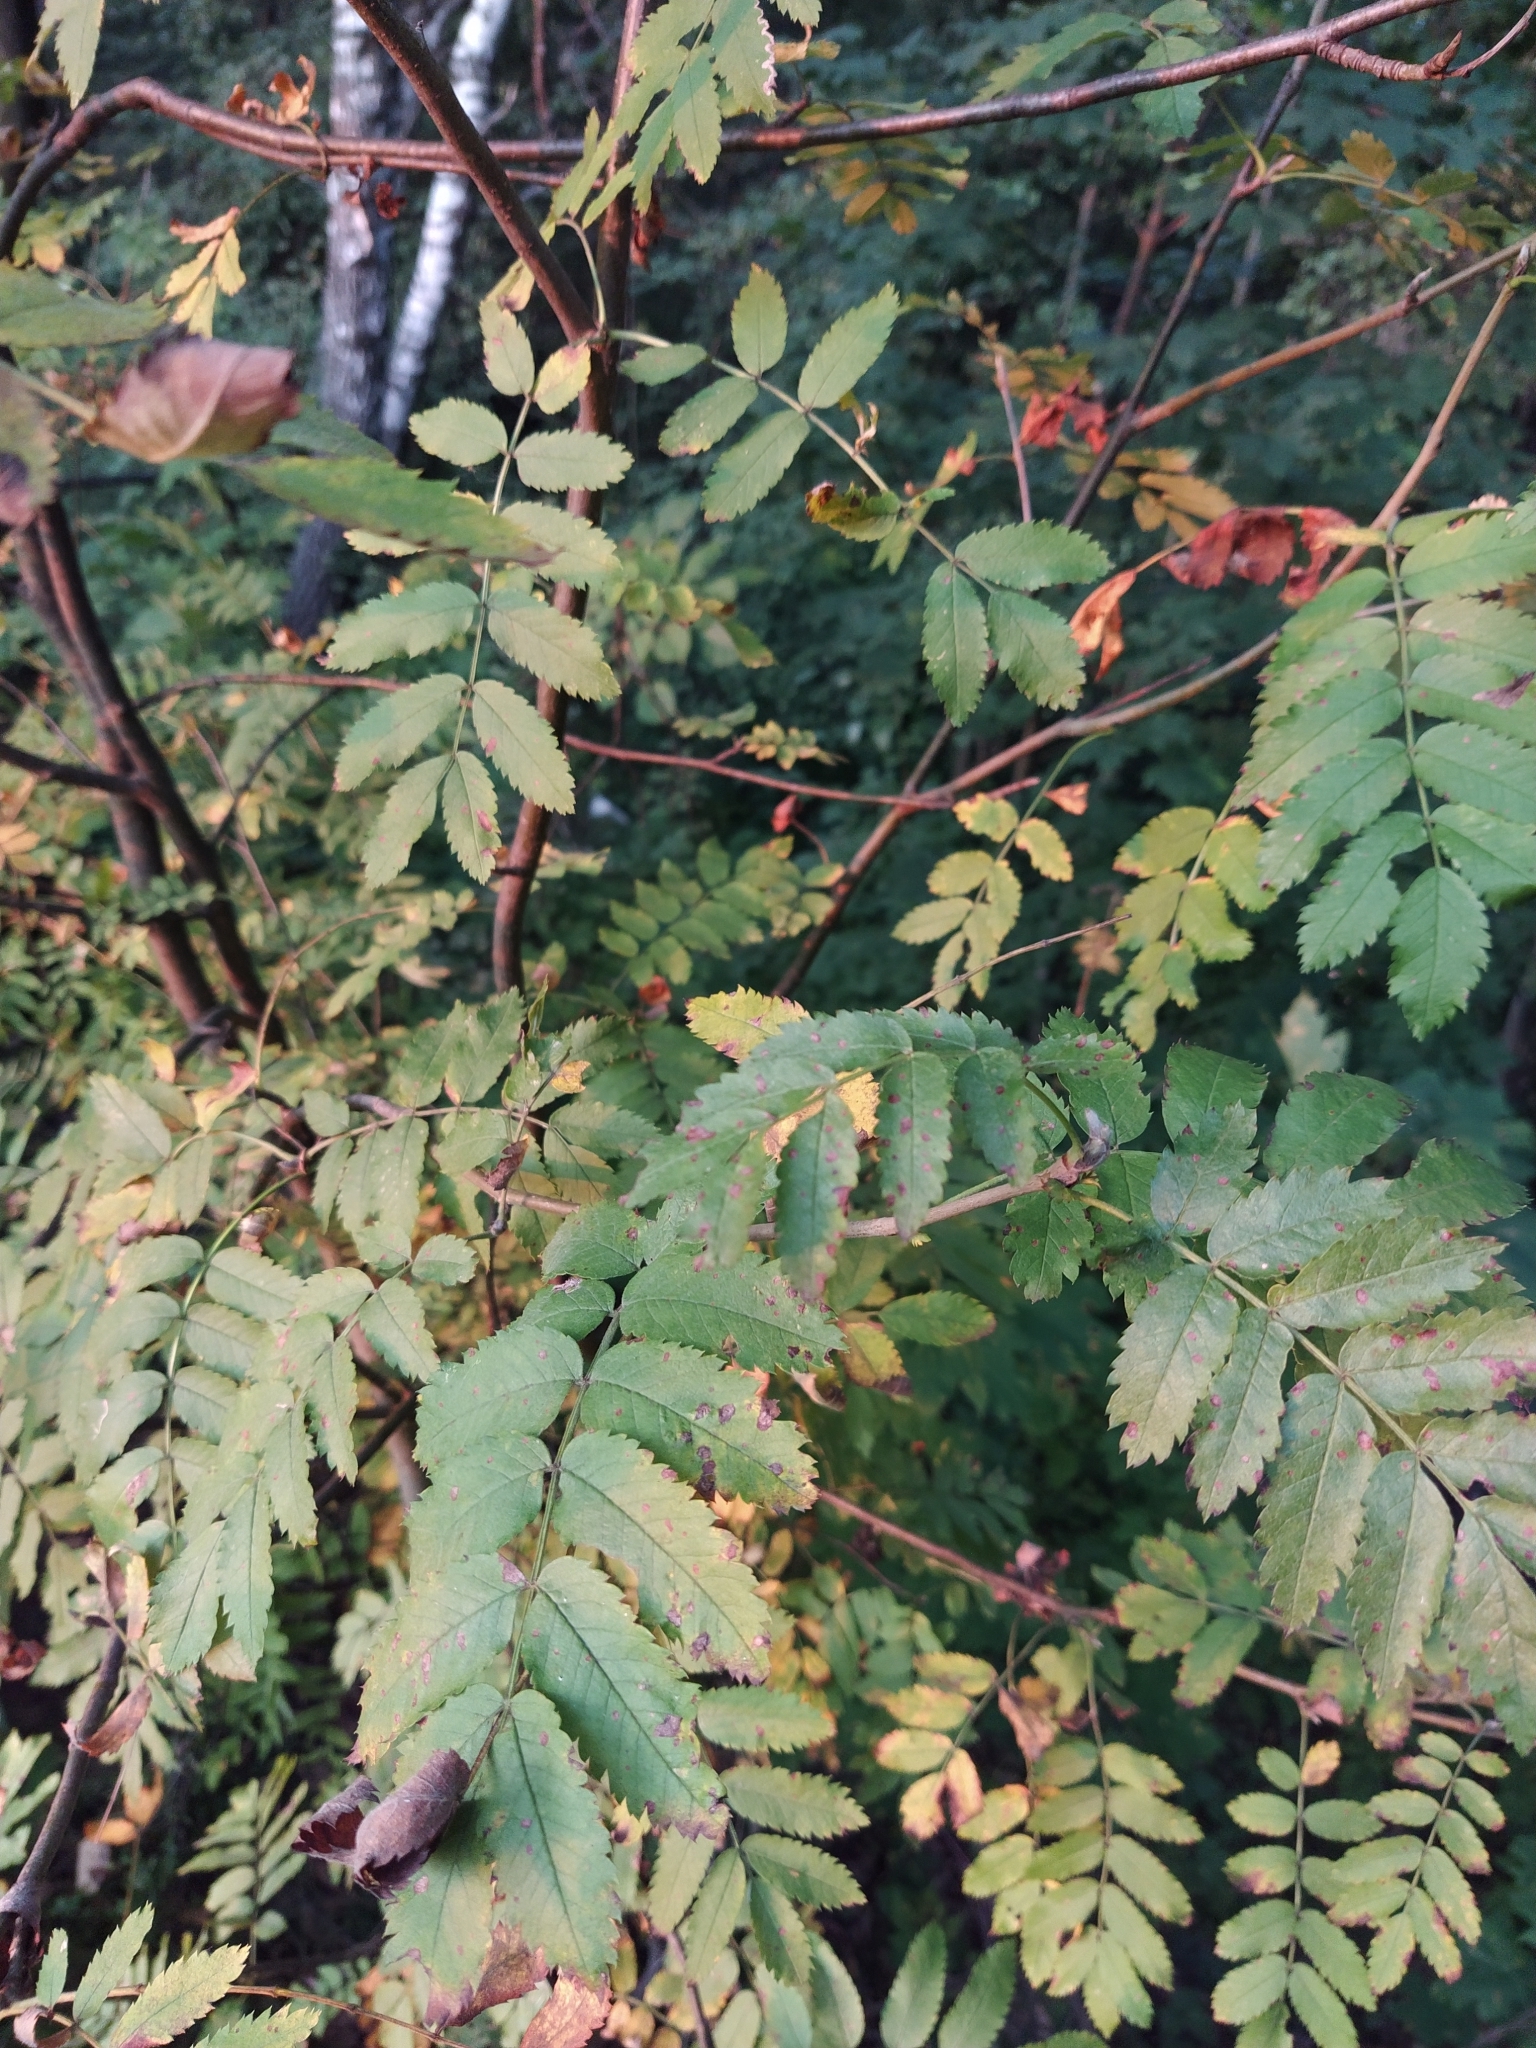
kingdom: Plantae
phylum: Tracheophyta
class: Magnoliopsida
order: Rosales
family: Rosaceae
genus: Sorbus
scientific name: Sorbus aucuparia
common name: Rowan
